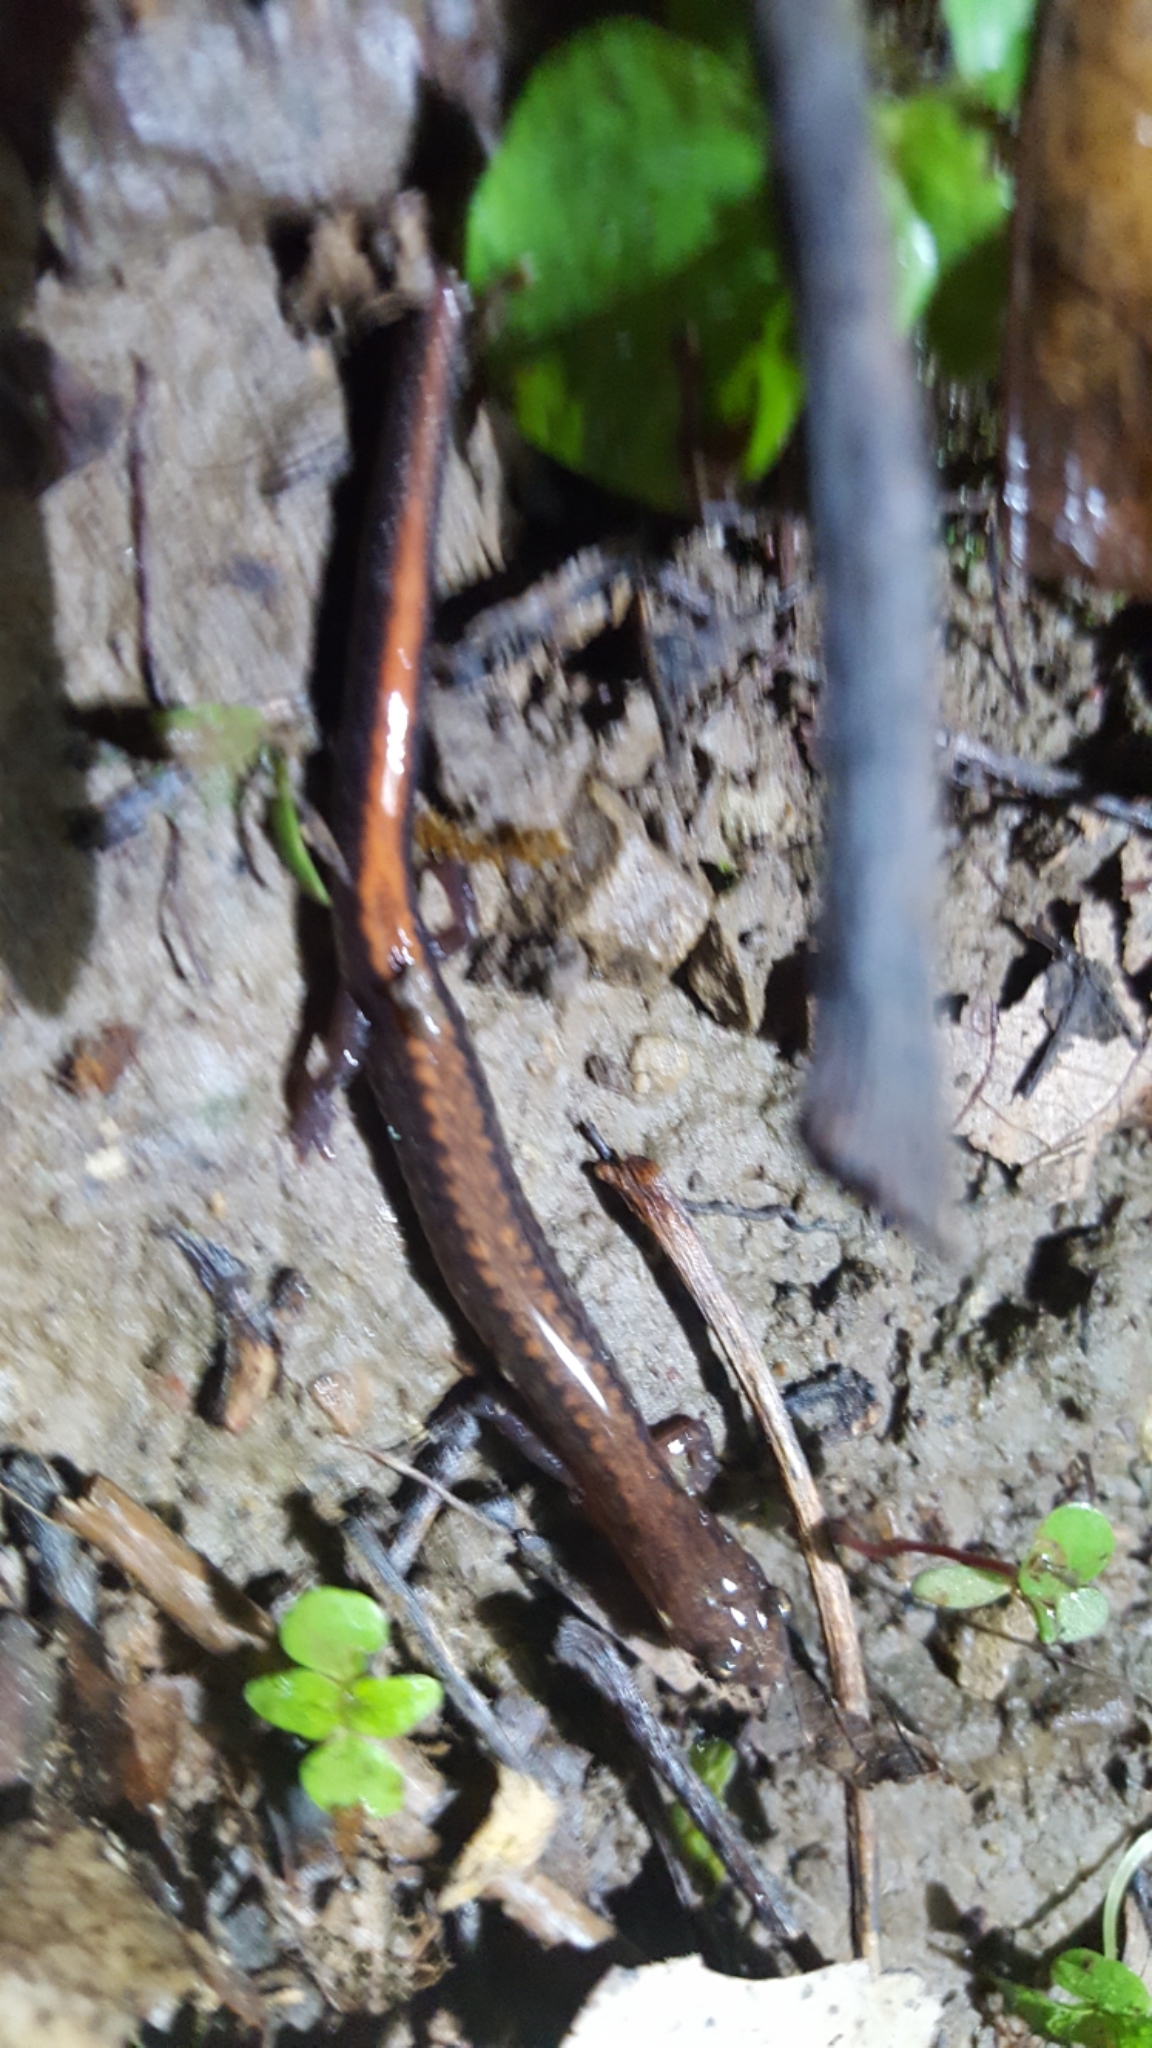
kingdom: Animalia
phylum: Chordata
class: Amphibia
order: Caudata
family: Plethodontidae
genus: Plethodon
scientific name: Plethodon serratus
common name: Southern red-backed salamander
